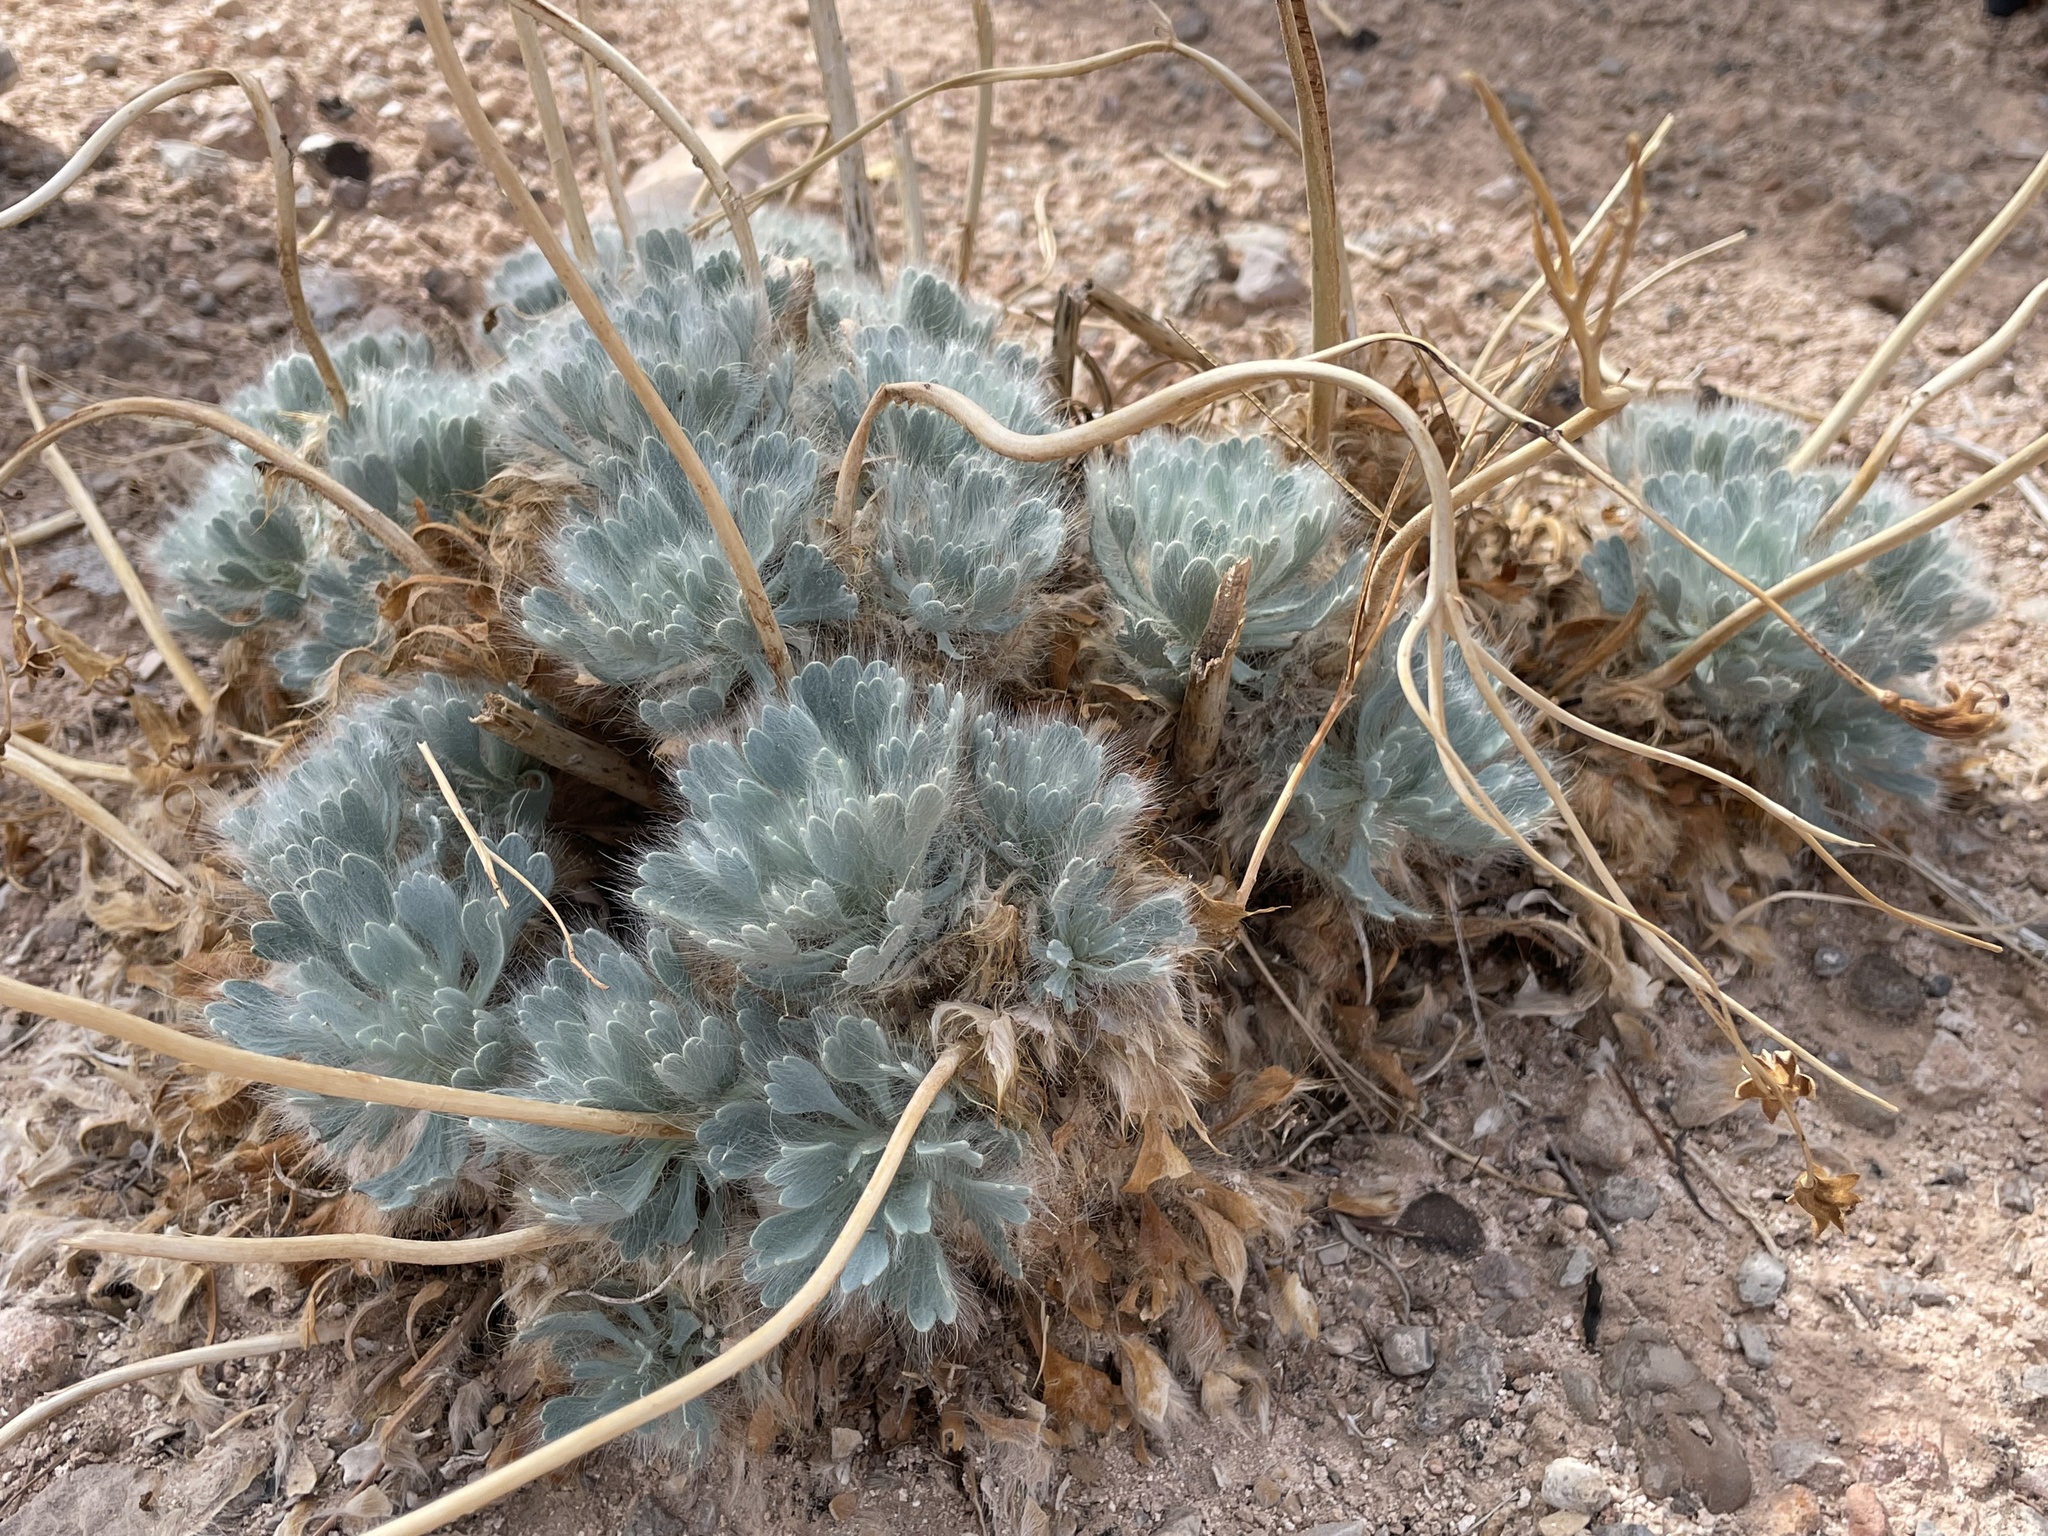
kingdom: Plantae
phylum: Tracheophyta
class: Magnoliopsida
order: Ranunculales
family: Papaveraceae
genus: Arctomecon
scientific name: Arctomecon californicum
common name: Golden bearclaw-poppy
